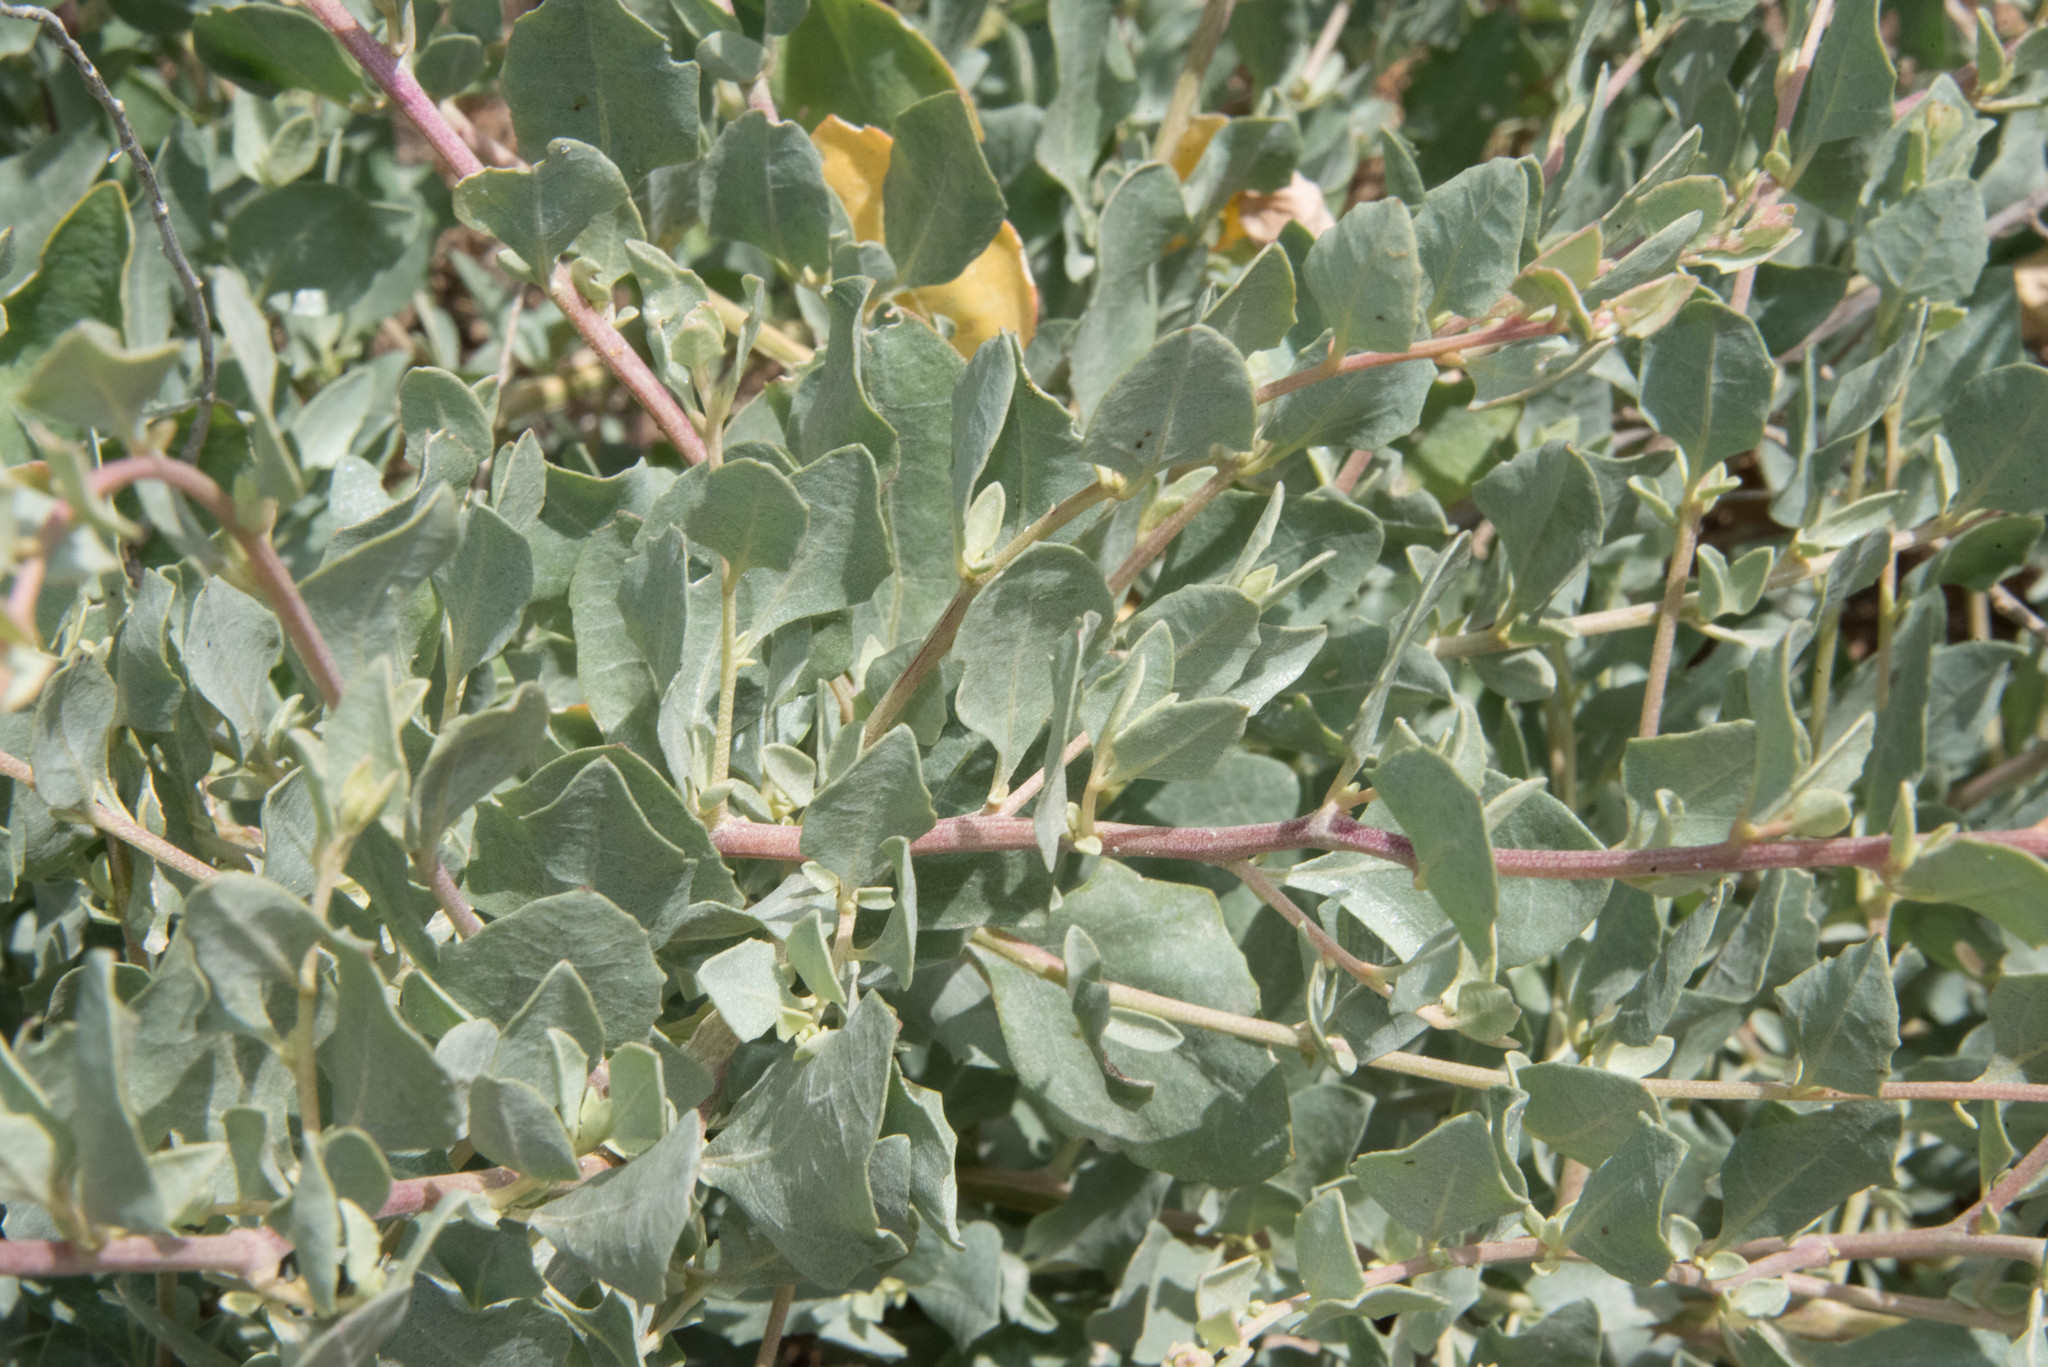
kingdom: Plantae
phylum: Tracheophyta
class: Magnoliopsida
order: Caryophyllales
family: Amaranthaceae
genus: Atriplex
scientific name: Atriplex halimus
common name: Shrubby orache
